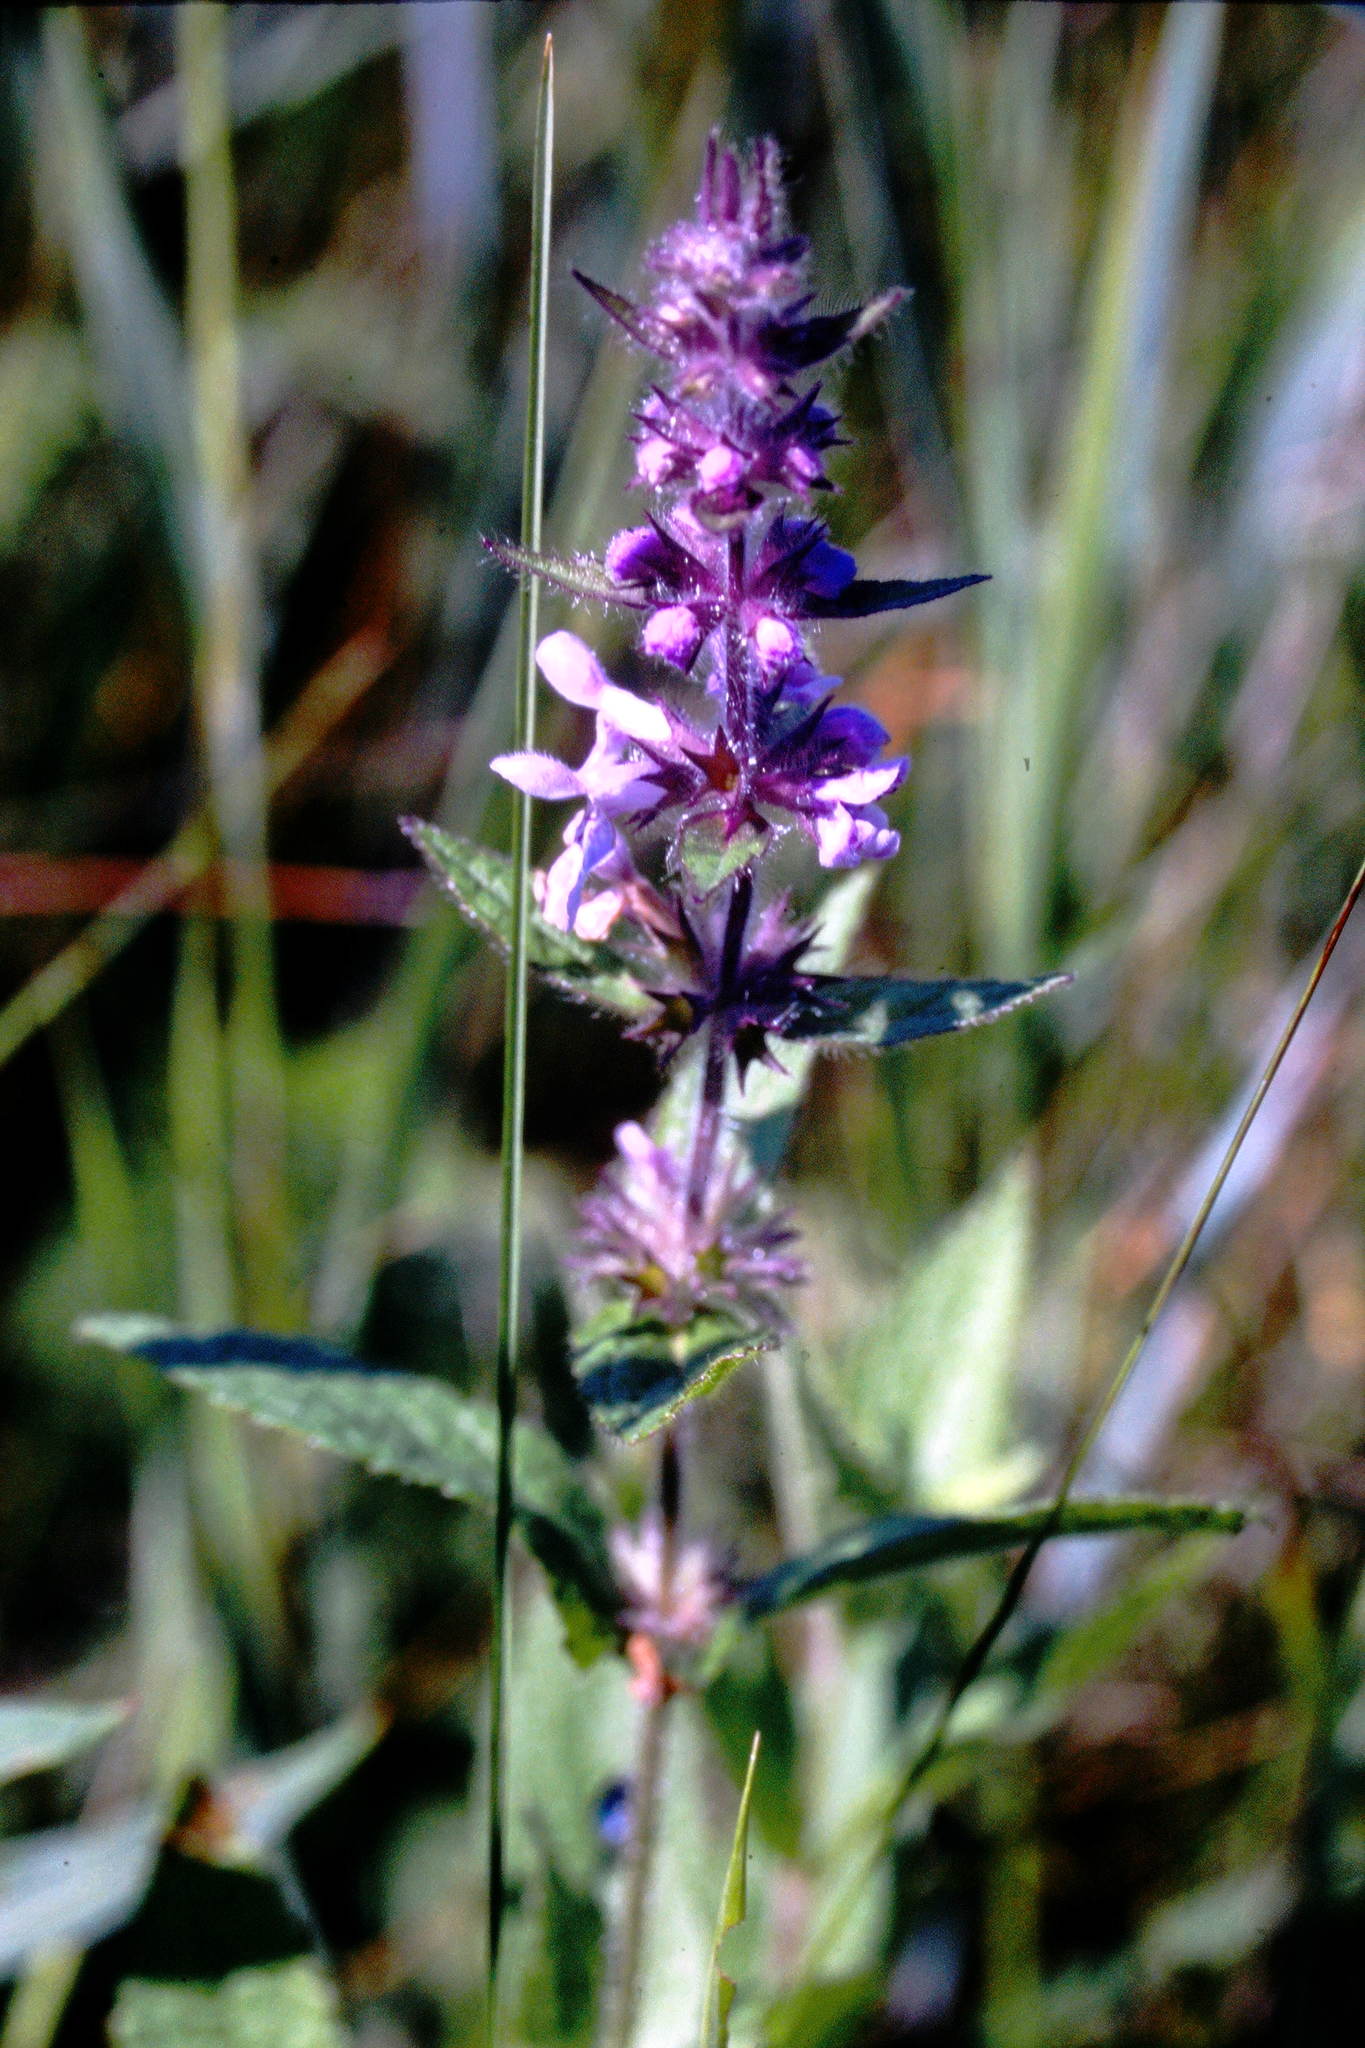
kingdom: Plantae
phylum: Tracheophyta
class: Magnoliopsida
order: Lamiales
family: Lamiaceae
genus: Stachys
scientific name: Stachys palustris
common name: Marsh woundwort
